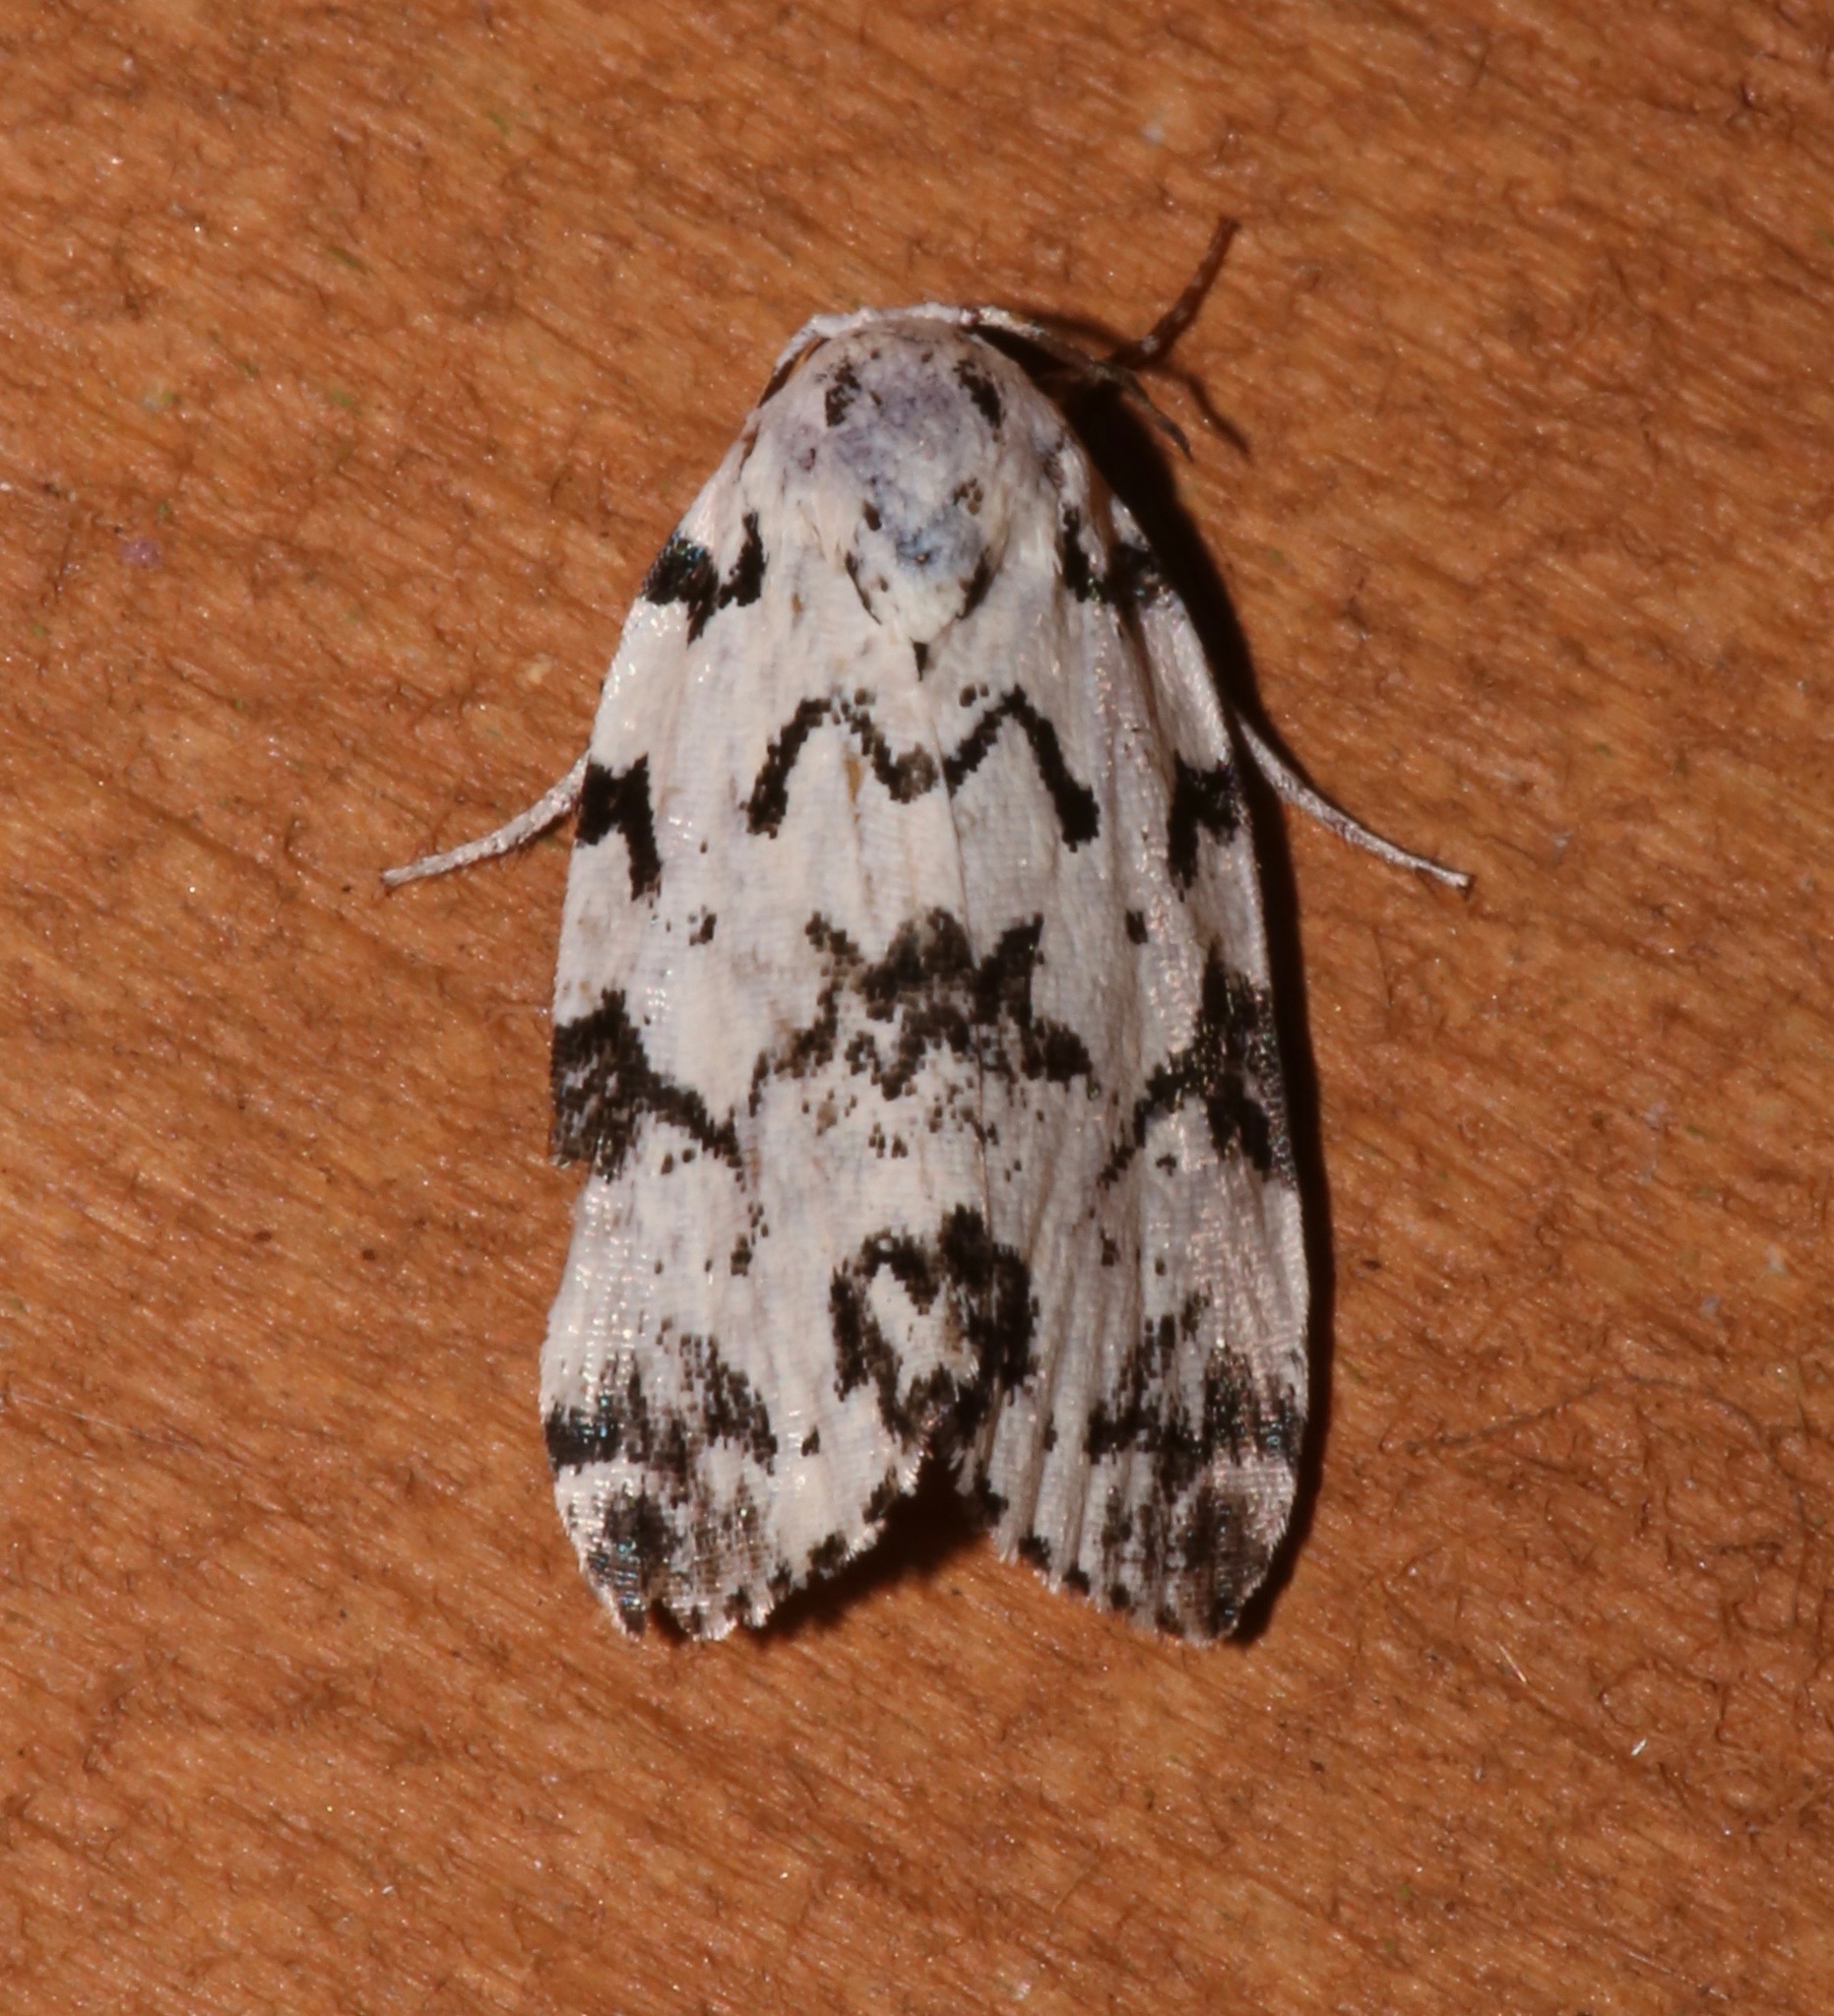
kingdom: Animalia
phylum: Arthropoda
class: Insecta
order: Lepidoptera
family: Noctuidae
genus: Polygrammate
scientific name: Polygrammate hebraeicum
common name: Hebrew moth
